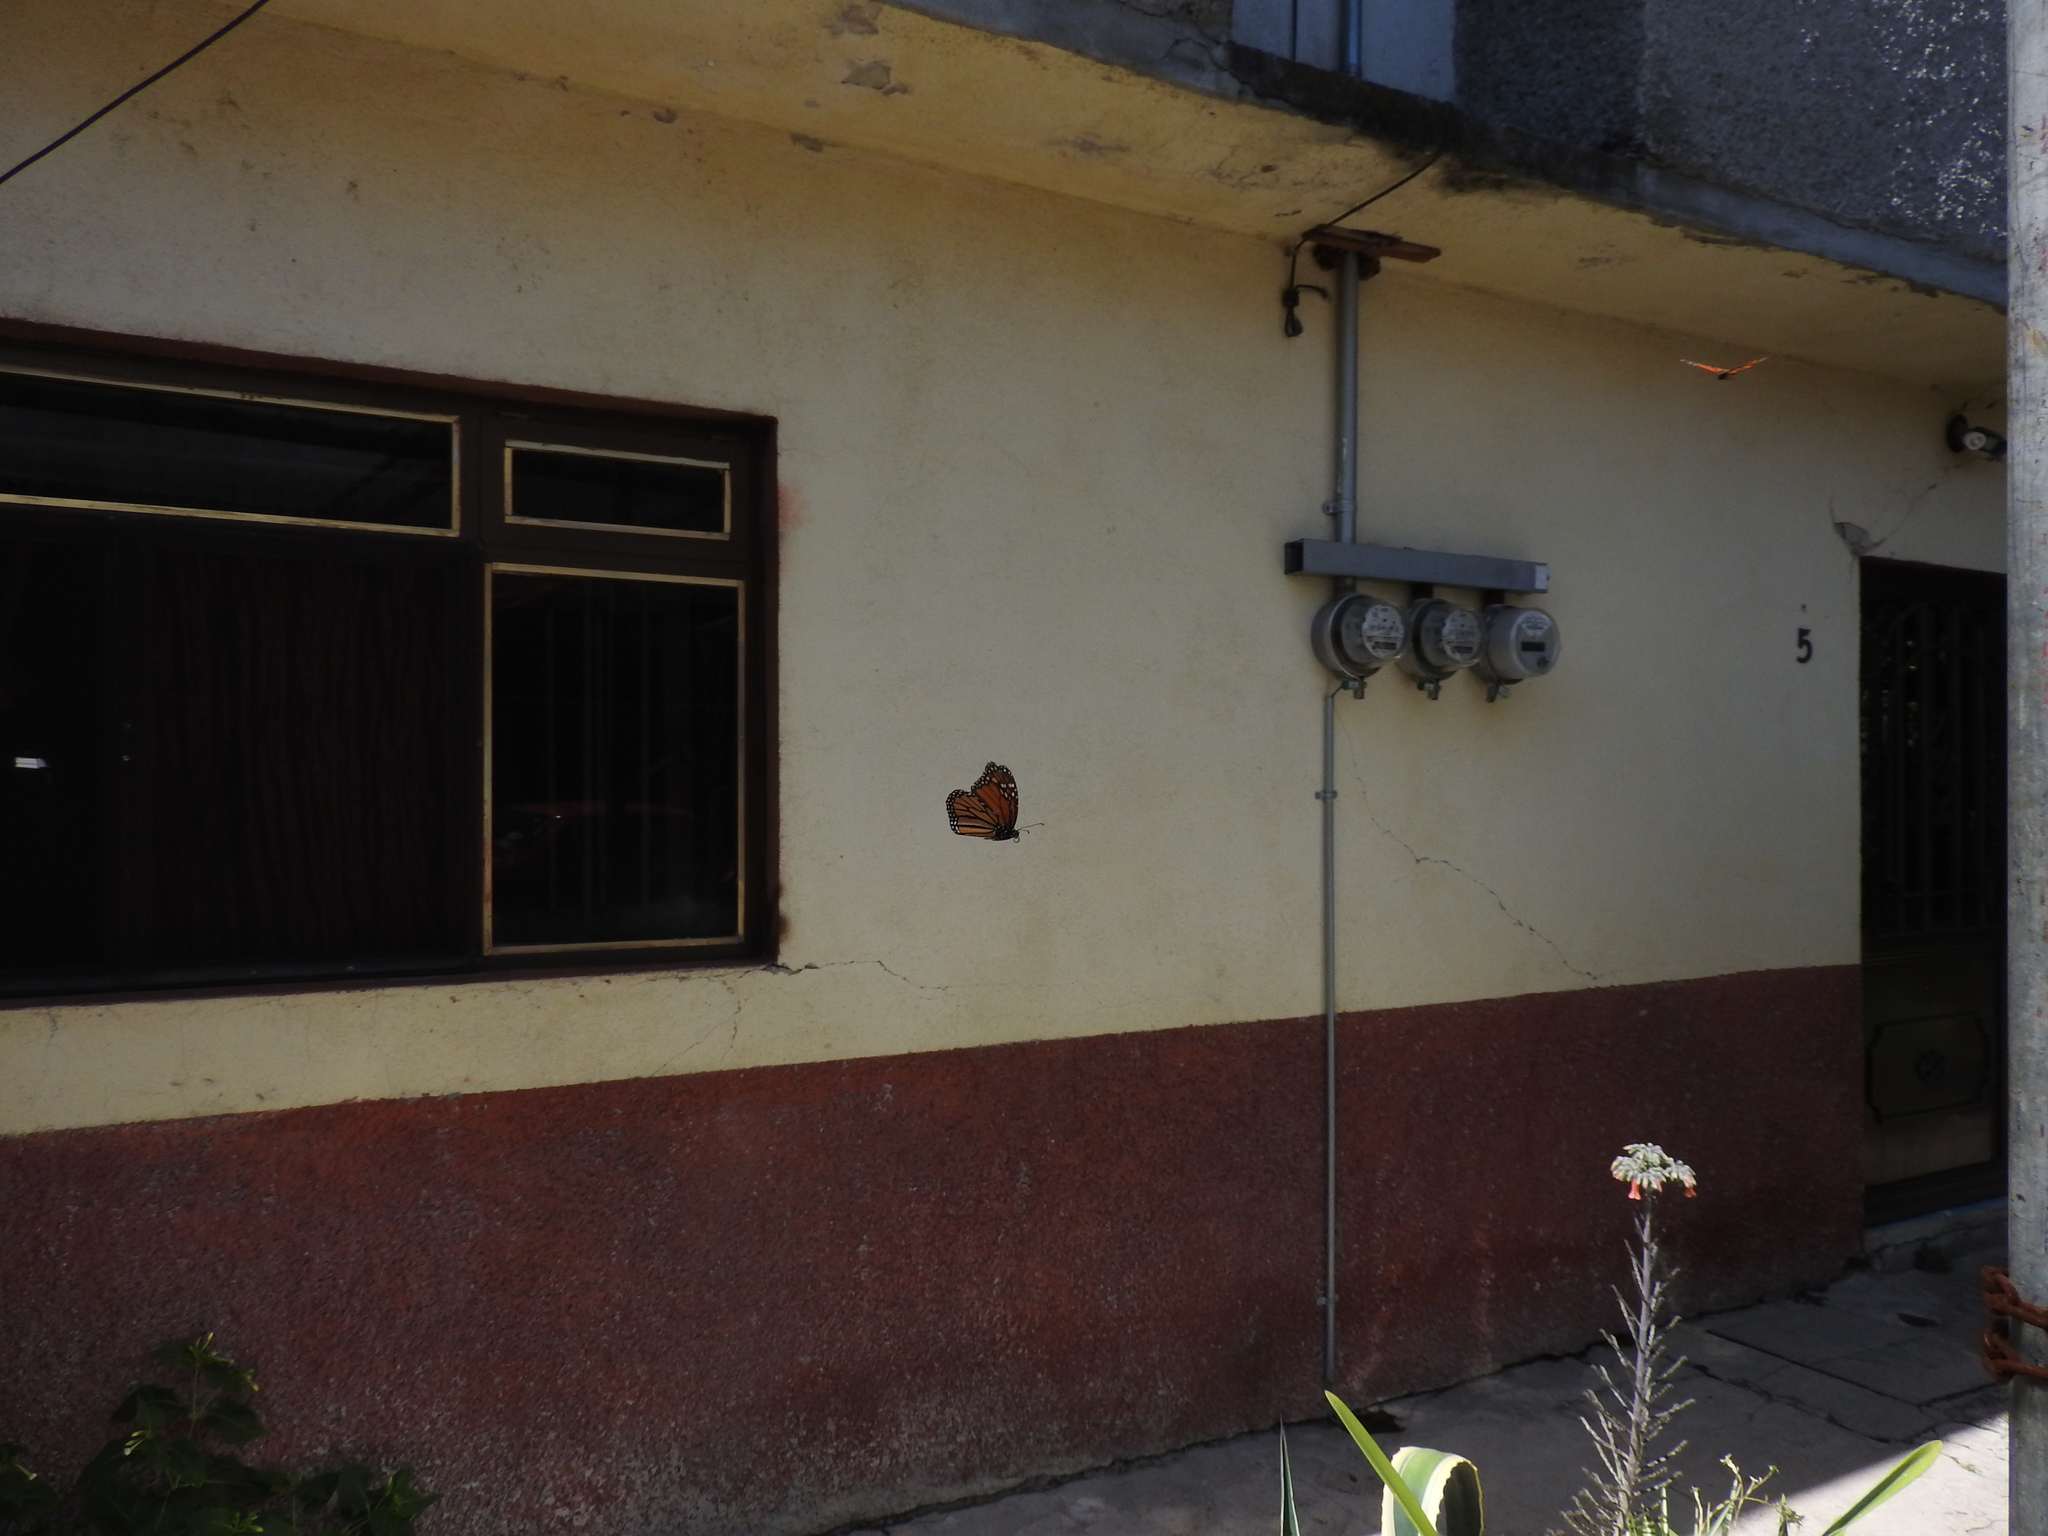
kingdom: Animalia
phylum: Arthropoda
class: Insecta
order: Lepidoptera
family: Nymphalidae
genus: Danaus
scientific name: Danaus plexippus
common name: Monarch
